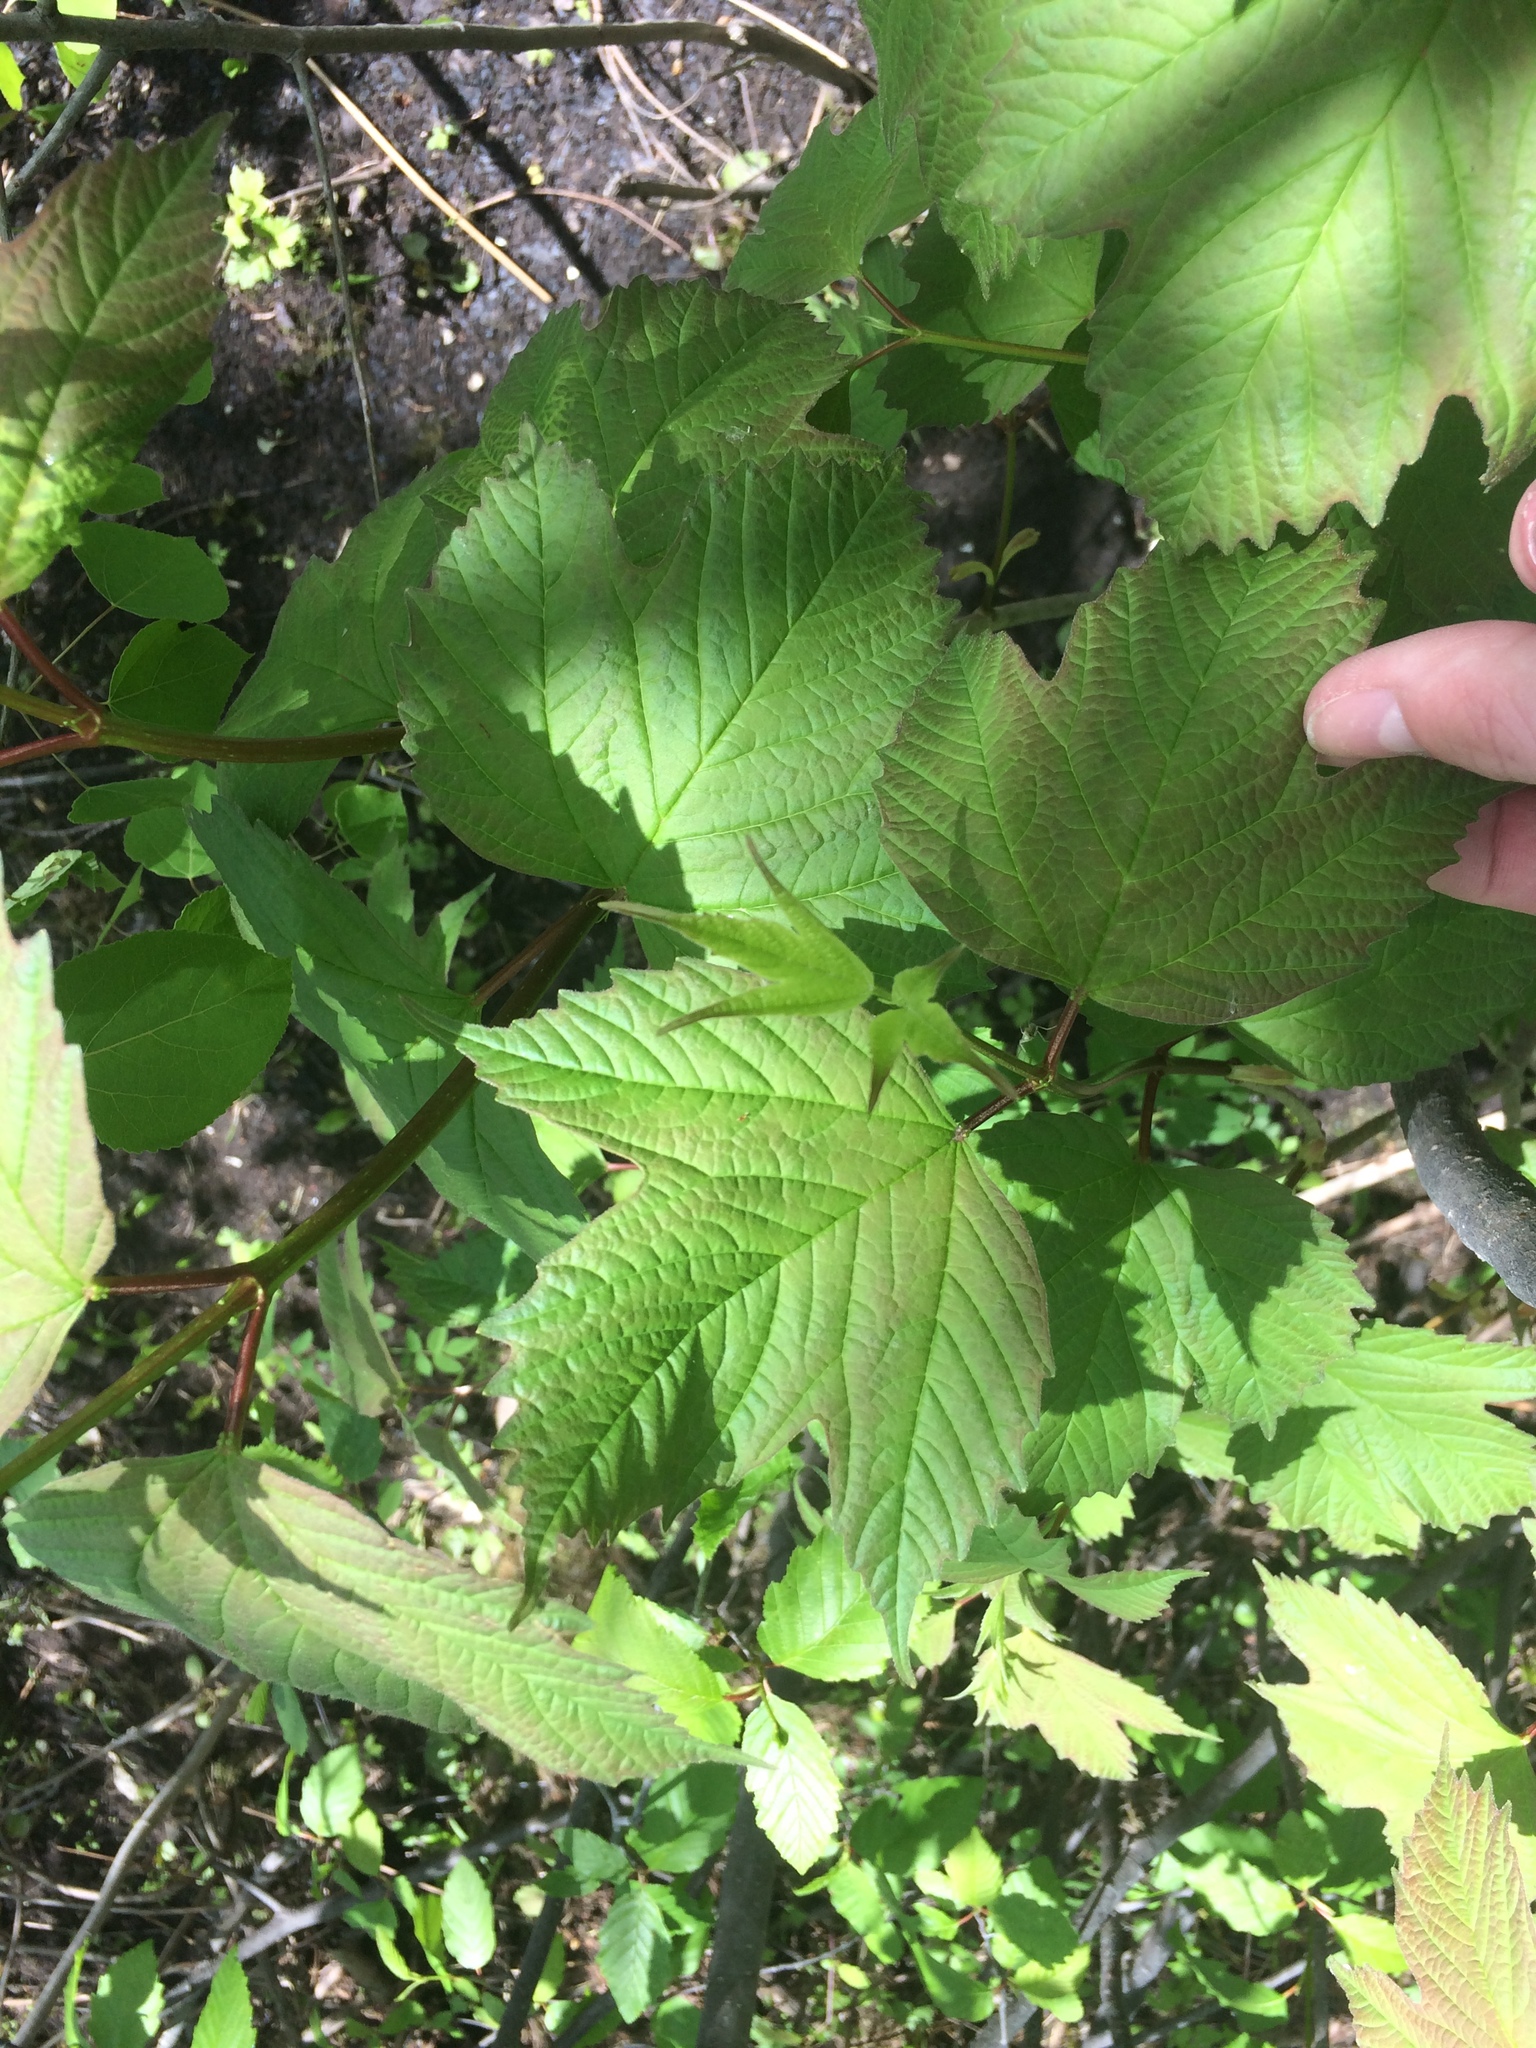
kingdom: Plantae
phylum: Tracheophyta
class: Magnoliopsida
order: Dipsacales
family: Viburnaceae
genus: Viburnum
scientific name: Viburnum trilobum
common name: American cranberrybush
